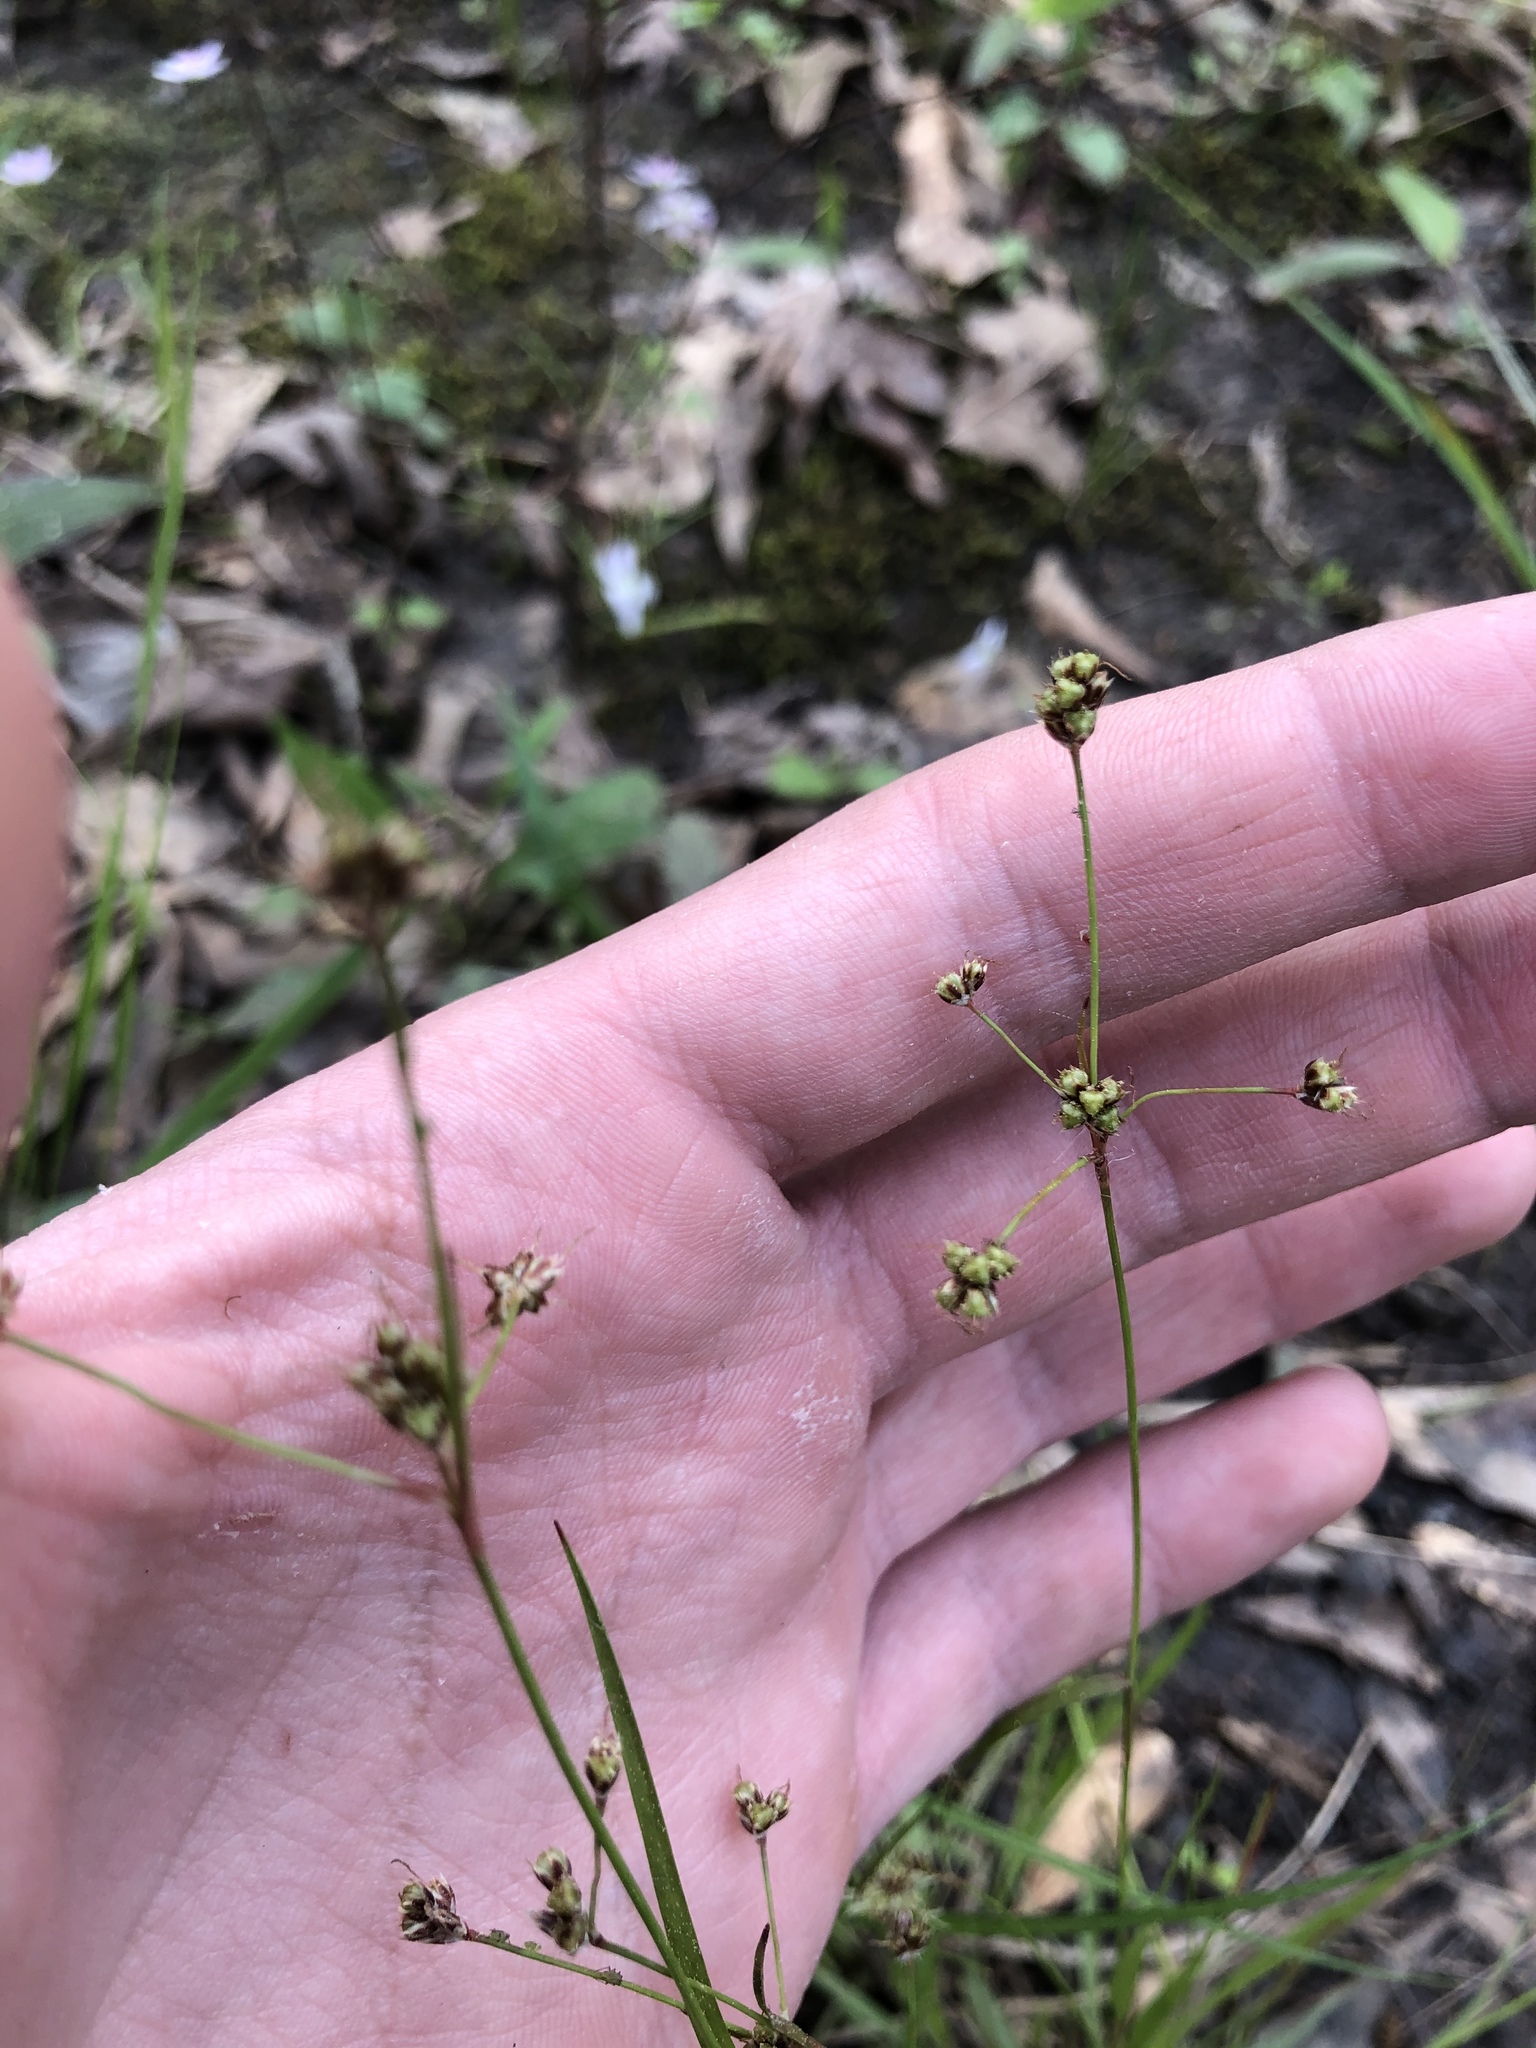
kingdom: Plantae
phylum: Tracheophyta
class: Liliopsida
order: Poales
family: Juncaceae
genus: Luzula
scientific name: Luzula echinata
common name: Hedgehog woodrush
